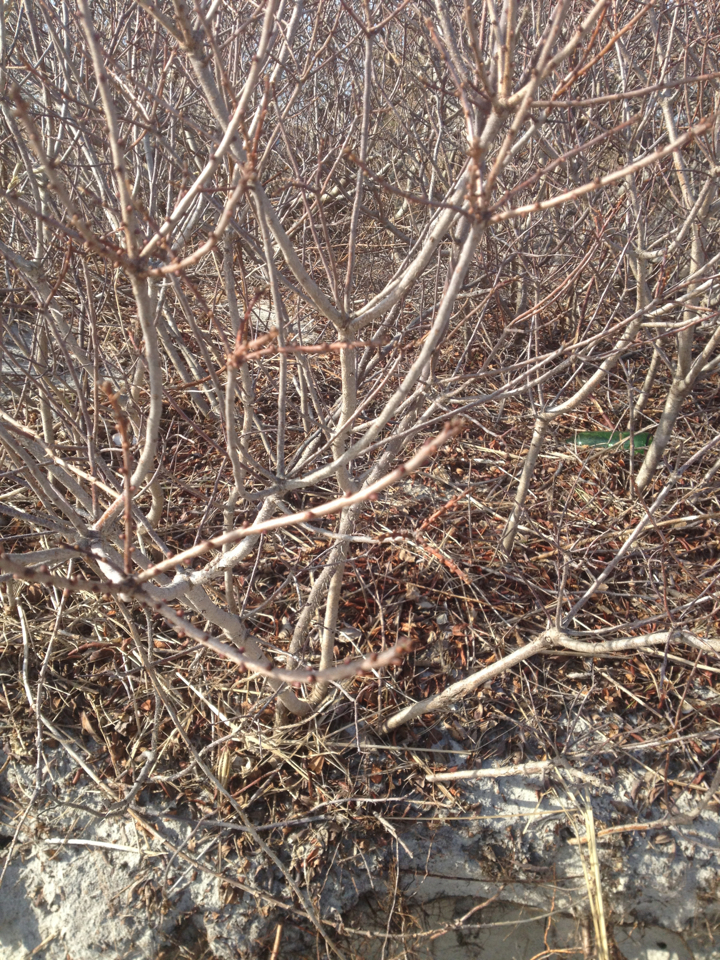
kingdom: Plantae
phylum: Tracheophyta
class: Magnoliopsida
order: Fagales
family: Myricaceae
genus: Morella
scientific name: Morella pensylvanica
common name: Northern bayberry
